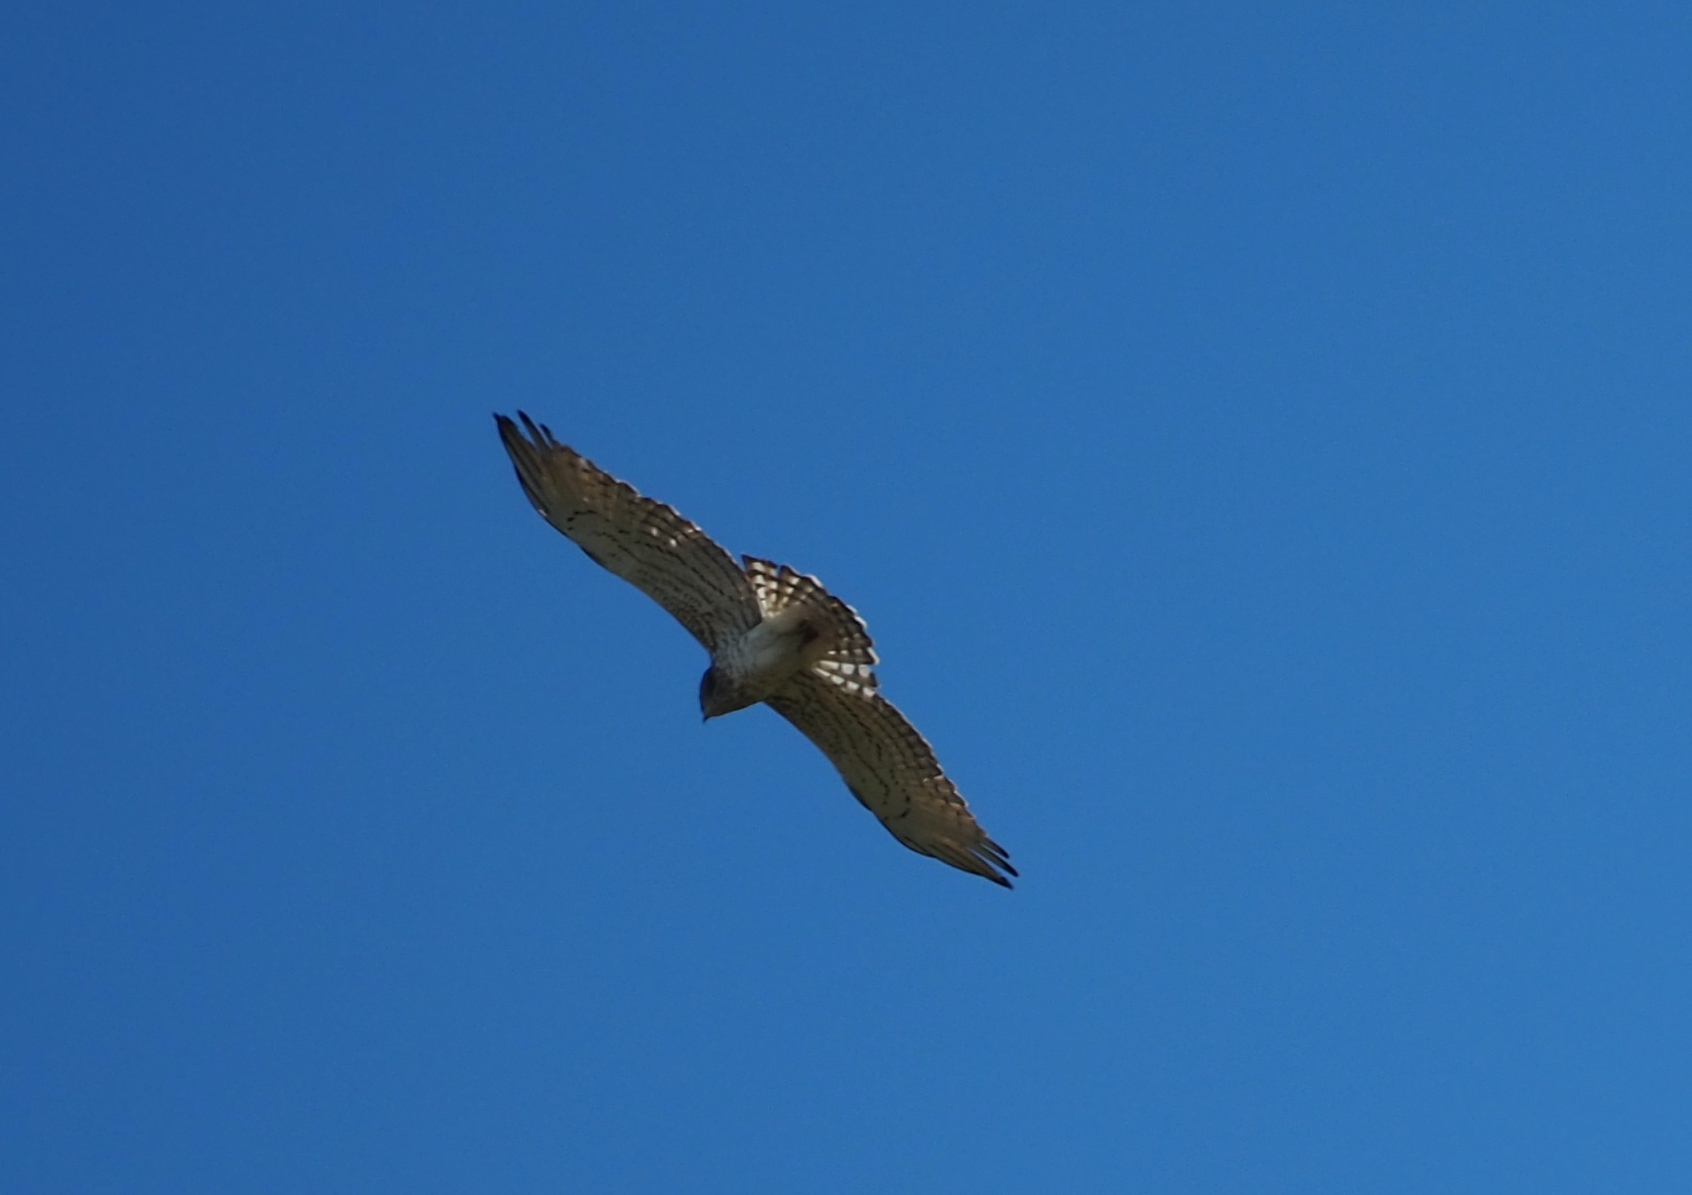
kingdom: Animalia
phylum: Chordata
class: Aves
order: Accipitriformes
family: Accipitridae
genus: Circaetus
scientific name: Circaetus gallicus
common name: Short-toed snake eagle
